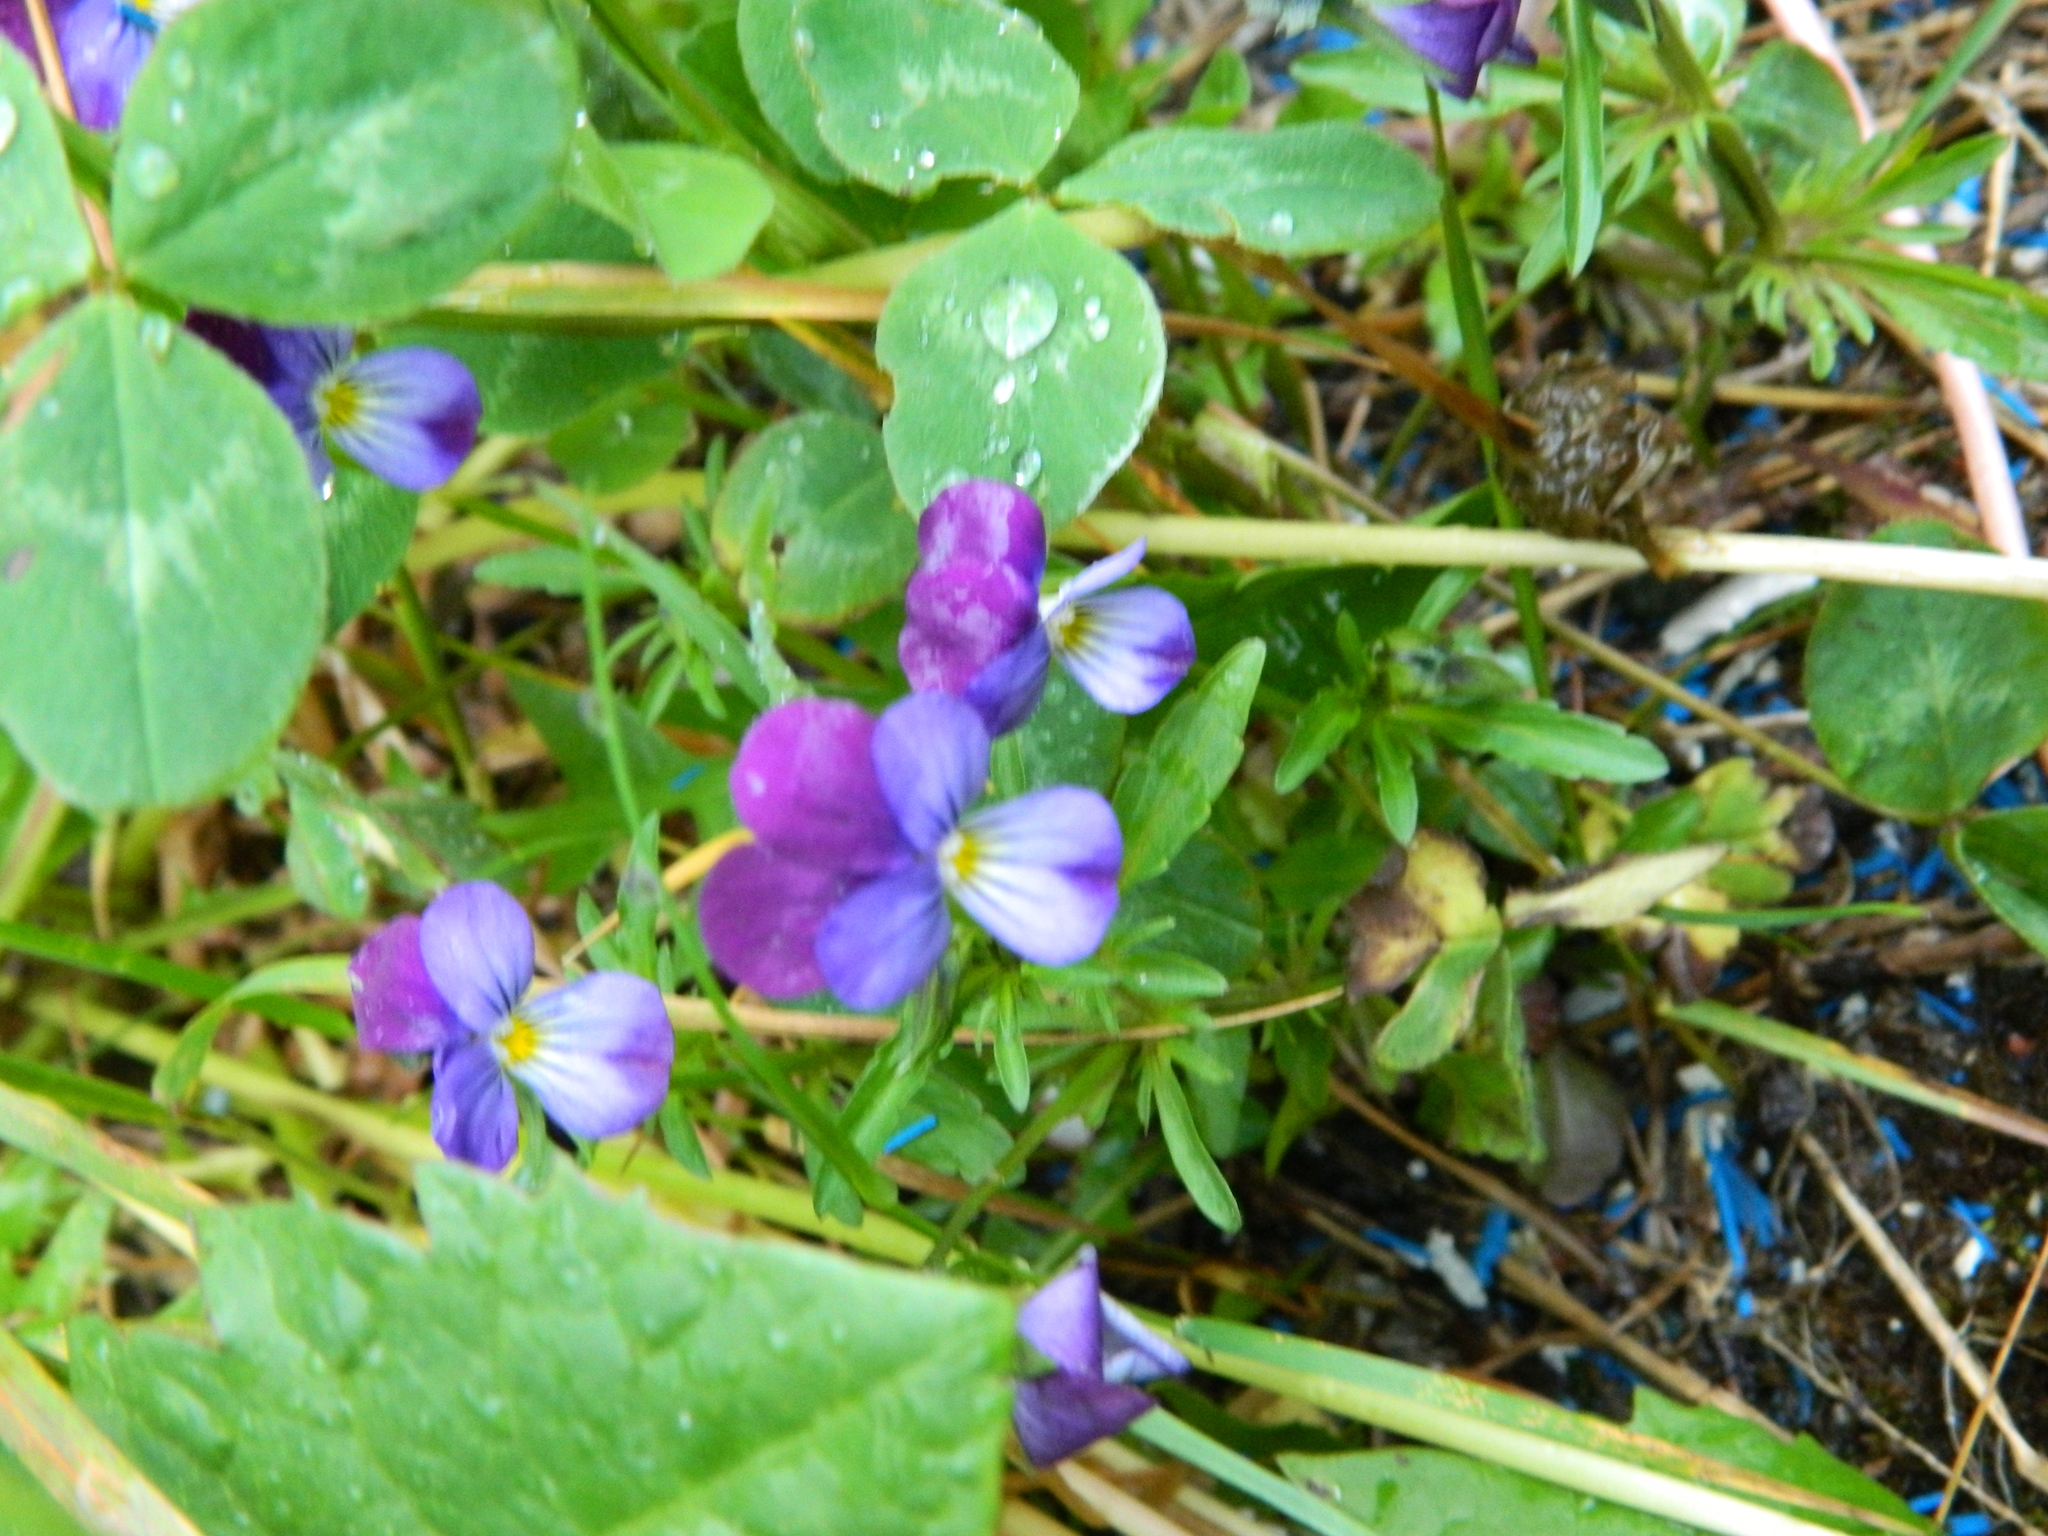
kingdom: Plantae
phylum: Tracheophyta
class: Magnoliopsida
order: Malpighiales
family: Violaceae
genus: Viola
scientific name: Viola tricolor
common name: Pansy
